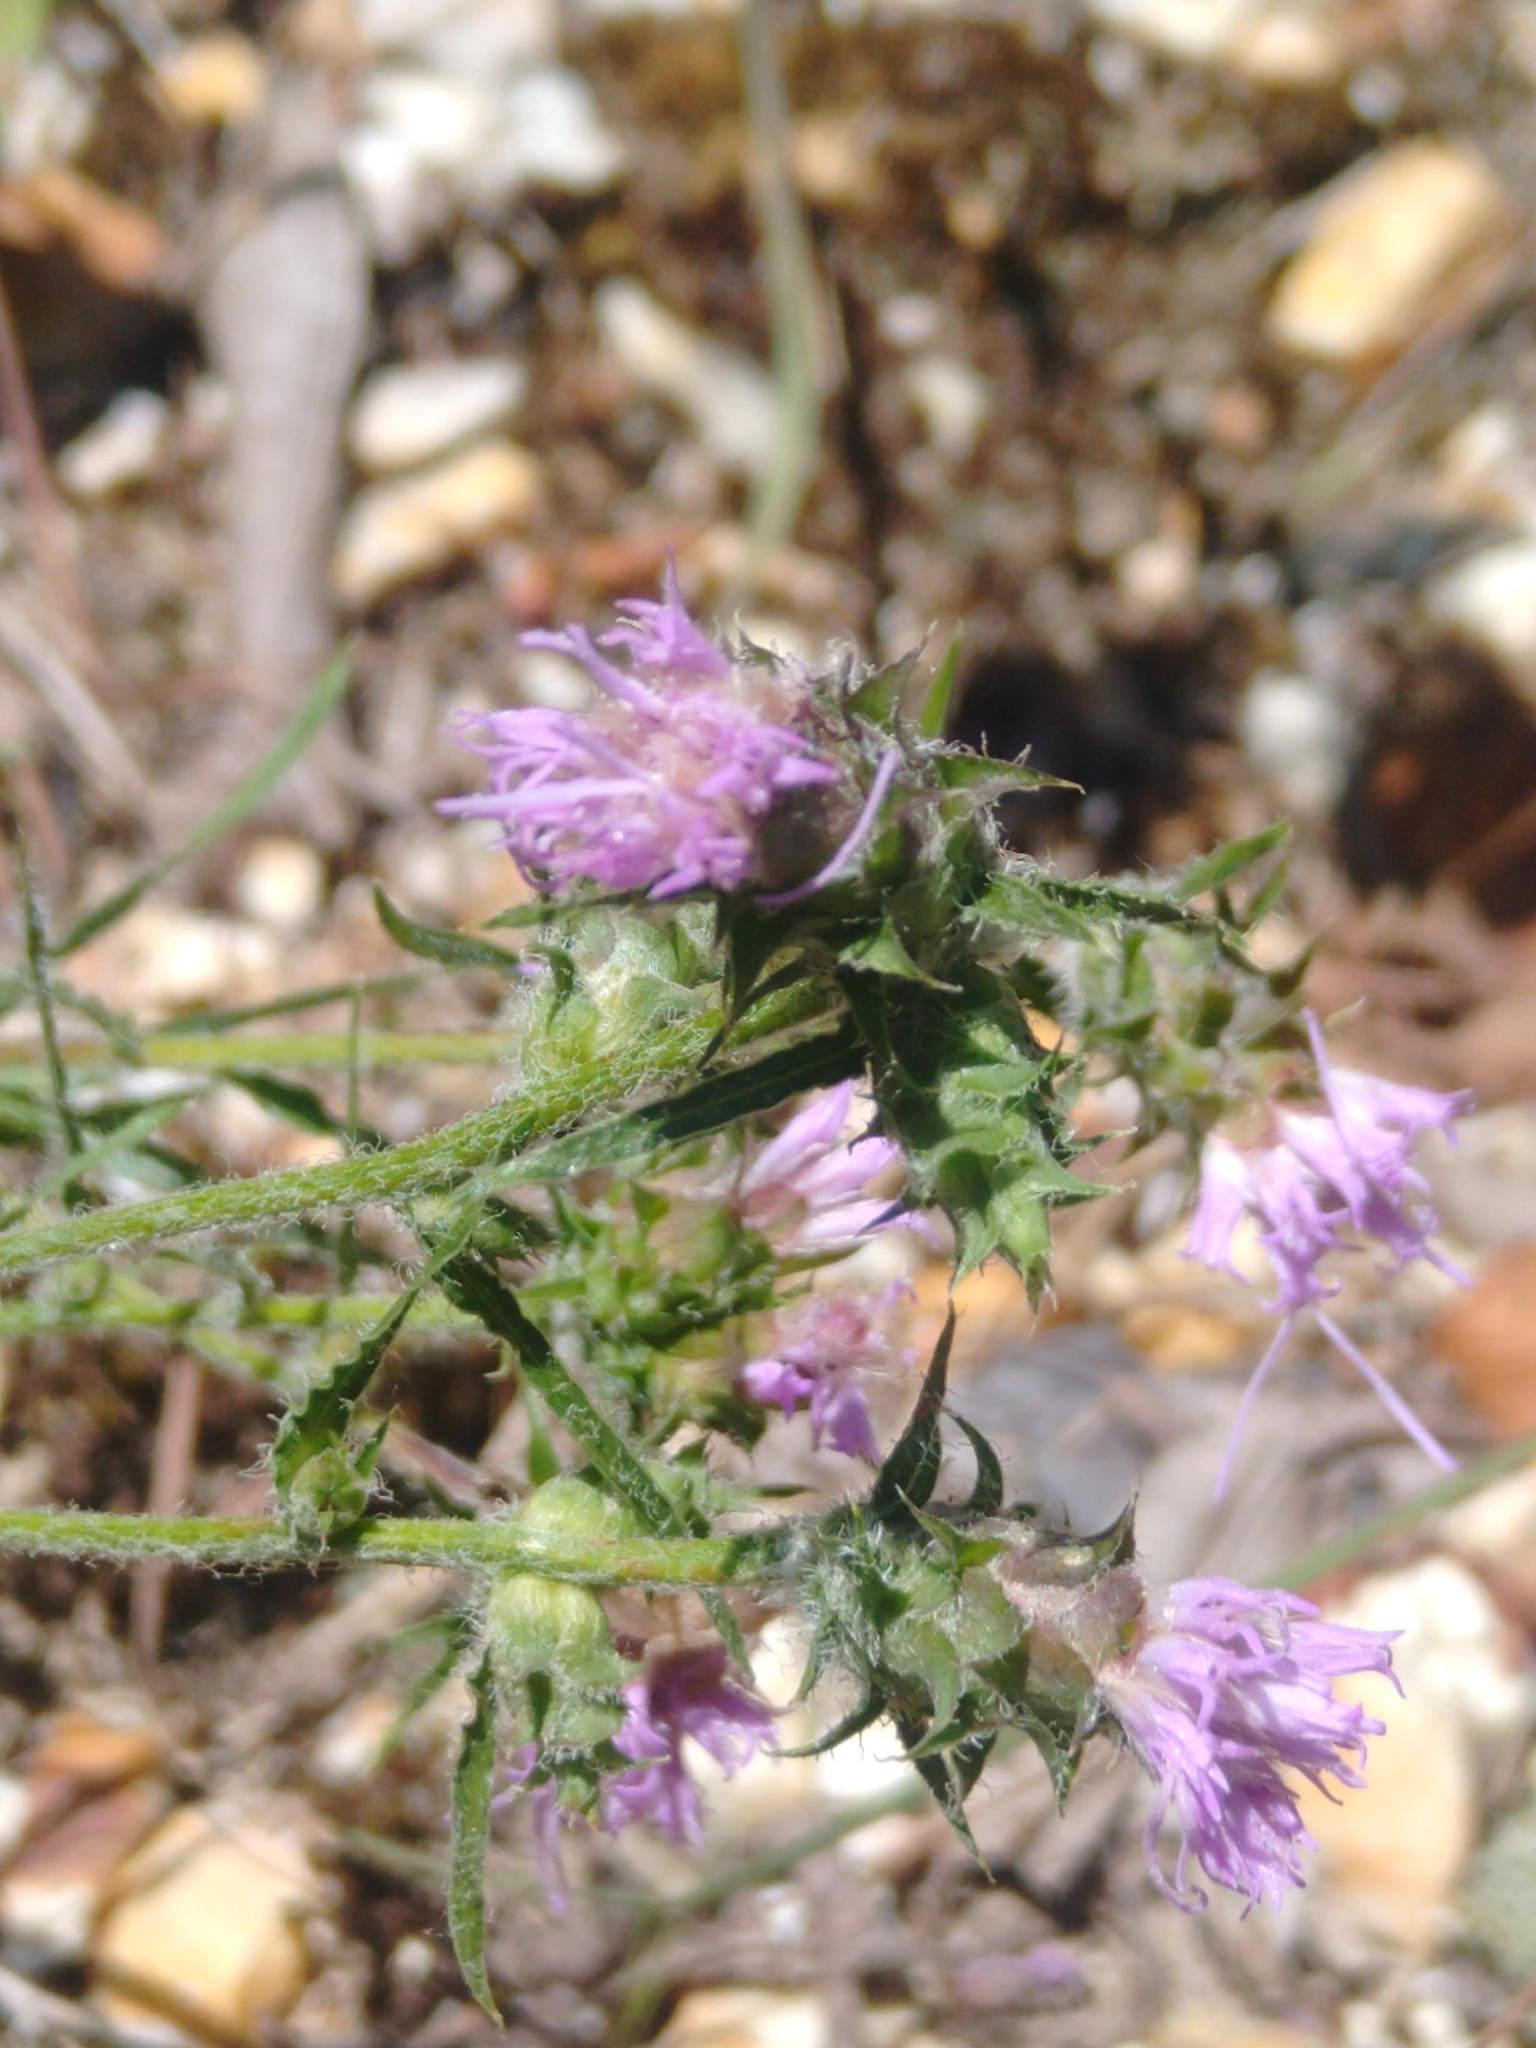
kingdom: Plantae
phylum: Tracheophyta
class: Magnoliopsida
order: Asterales
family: Asteraceae
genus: Liatris
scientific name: Liatris hirsuta
